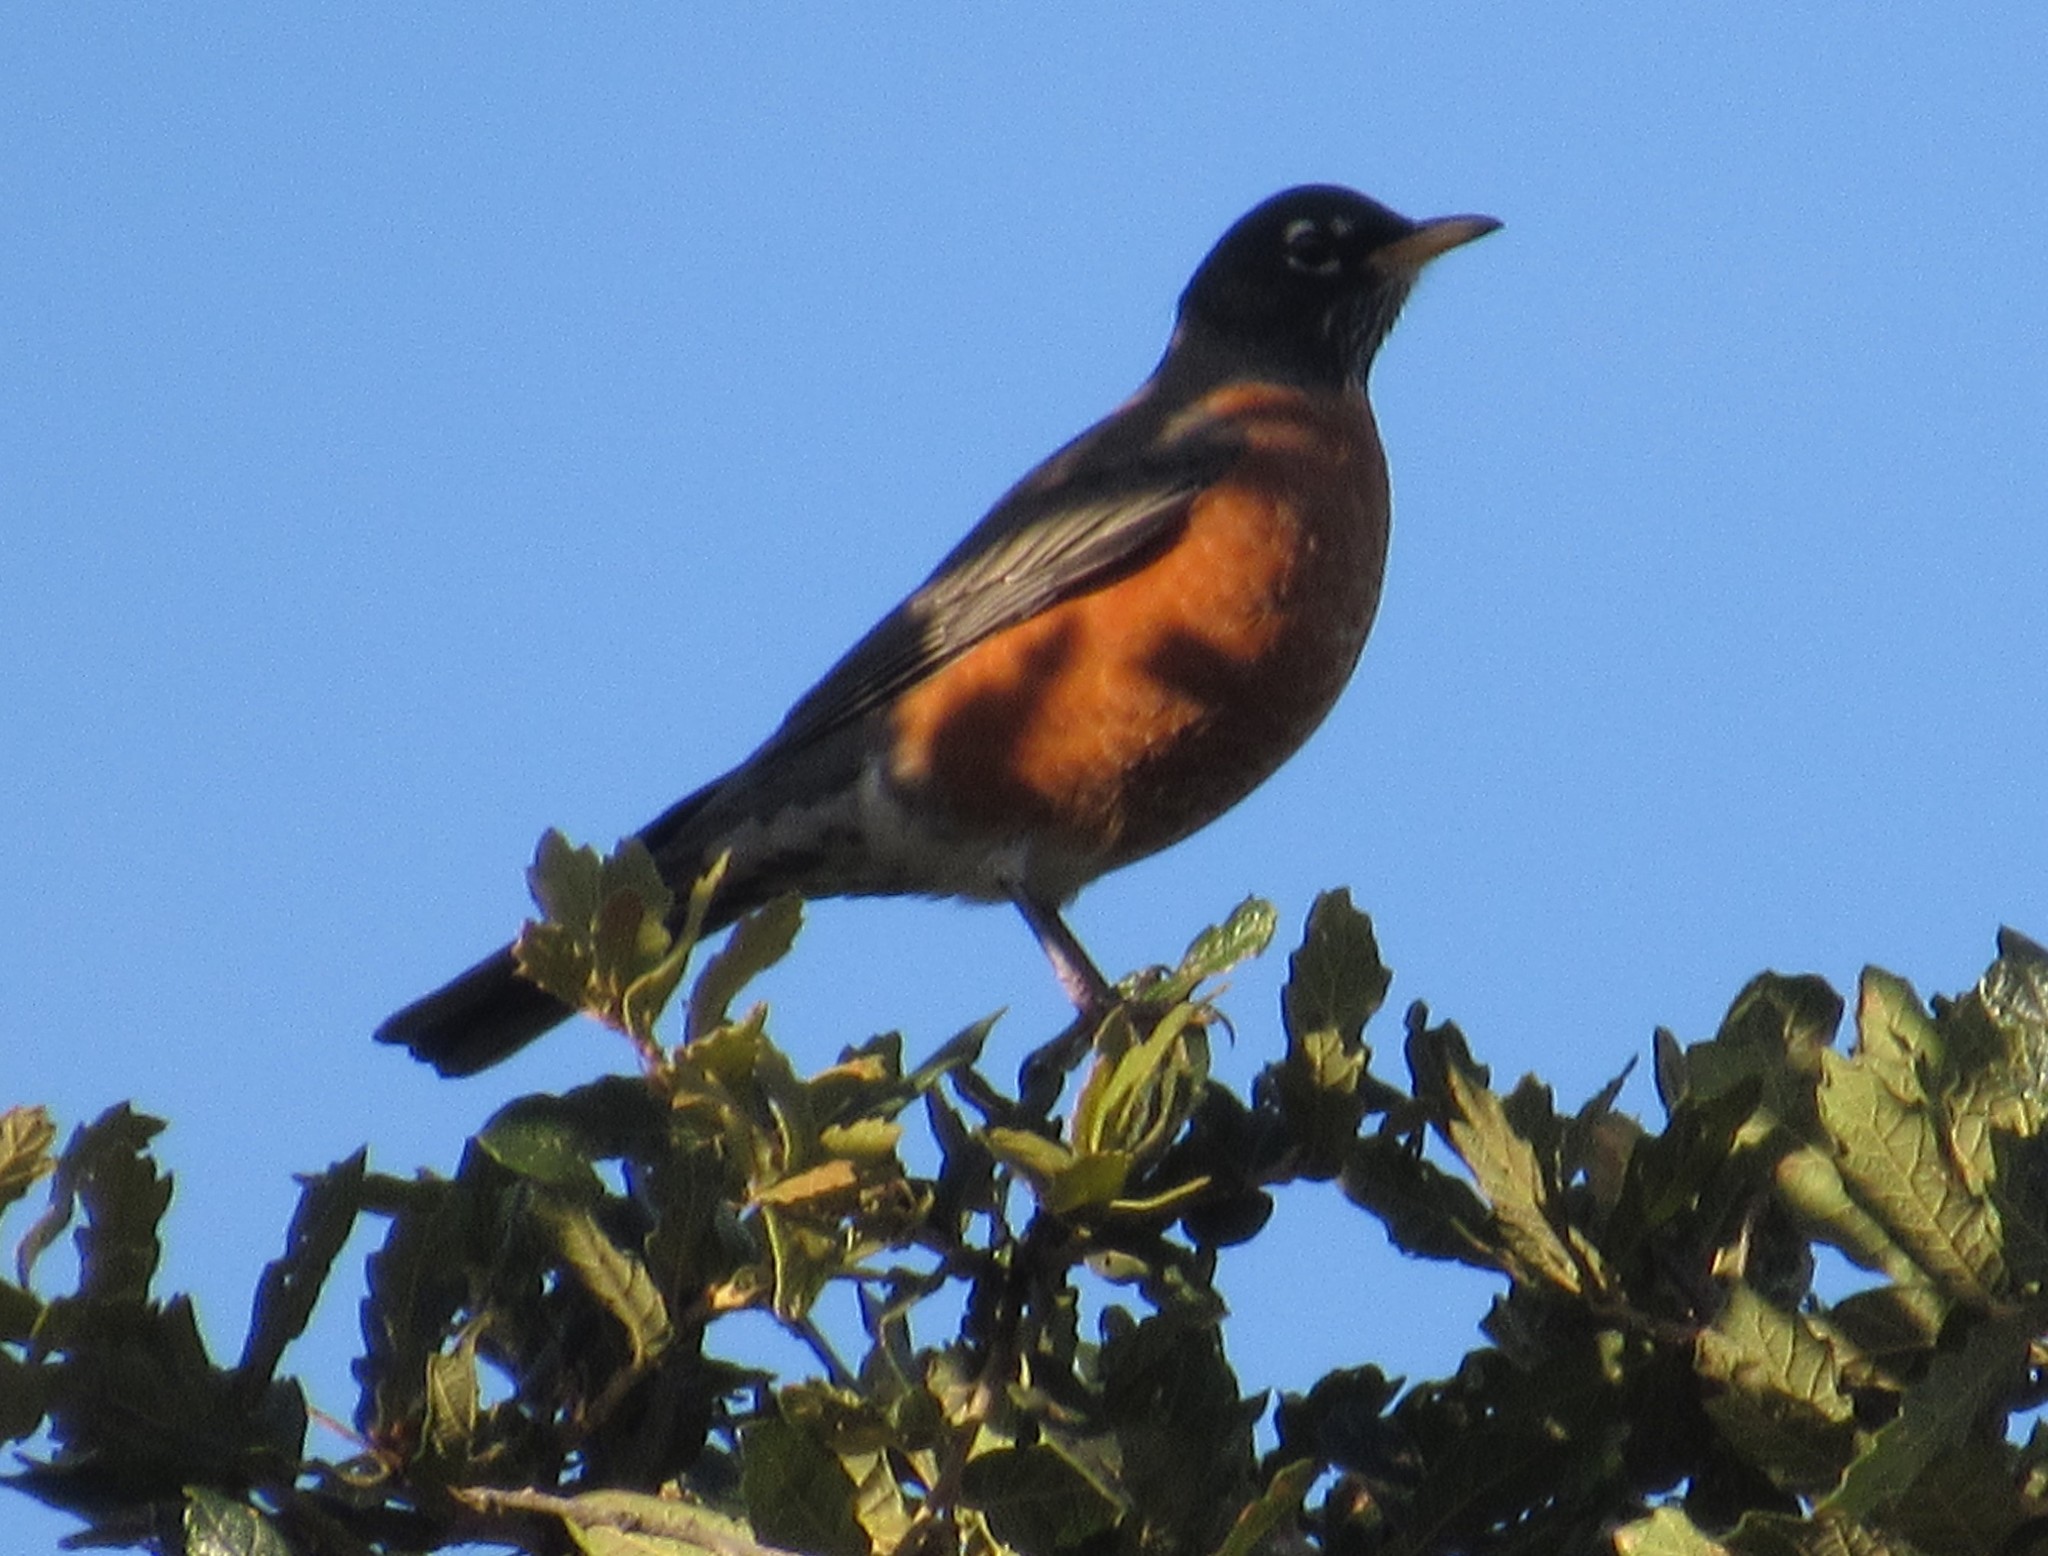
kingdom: Animalia
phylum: Chordata
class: Aves
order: Passeriformes
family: Turdidae
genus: Turdus
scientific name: Turdus migratorius
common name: American robin
